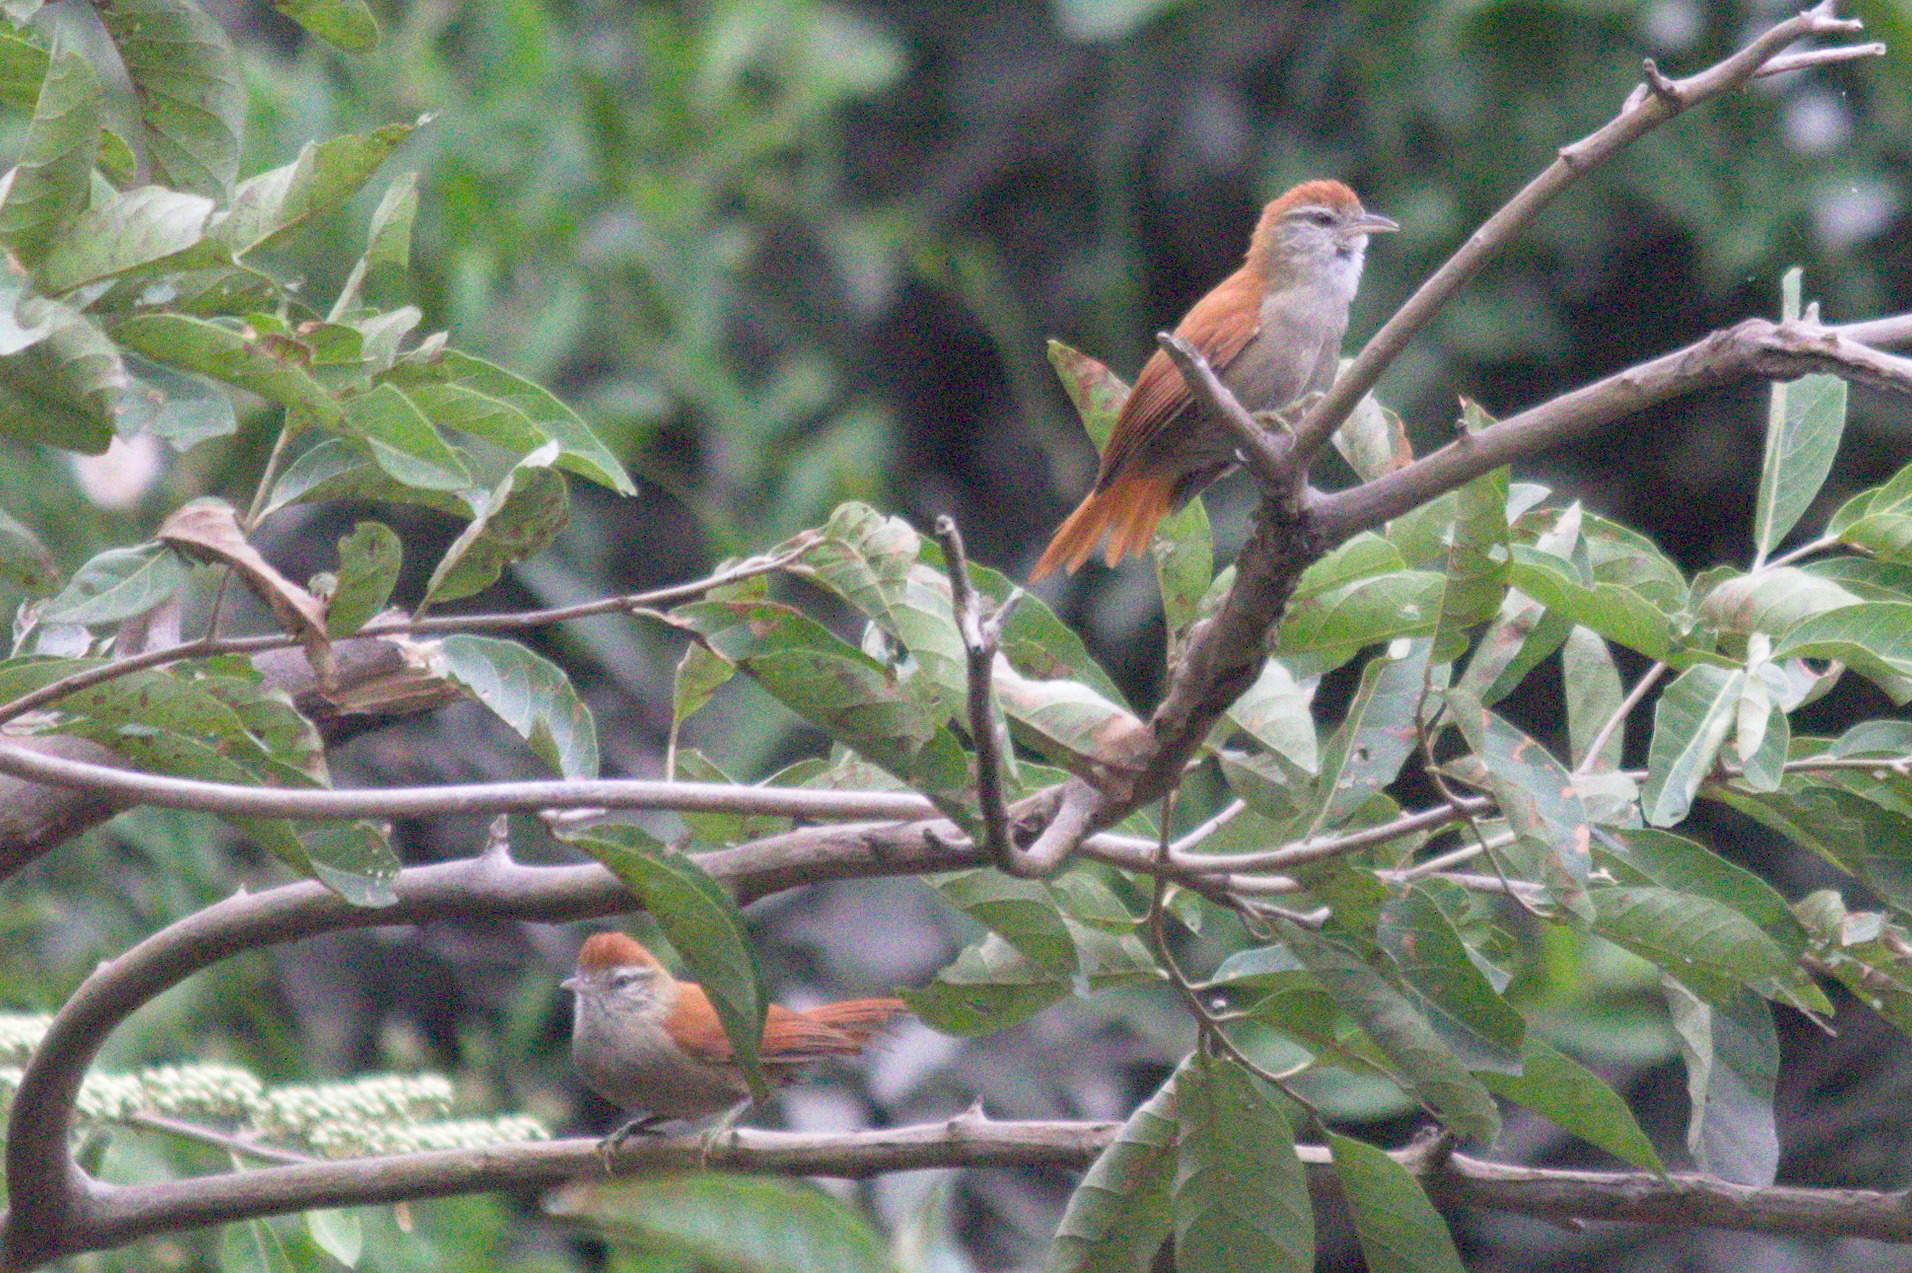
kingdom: Animalia
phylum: Chordata
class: Aves
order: Passeriformes
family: Furnariidae
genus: Cranioleuca
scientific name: Cranioleuca vulpina
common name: Rusty-backed spinetail
